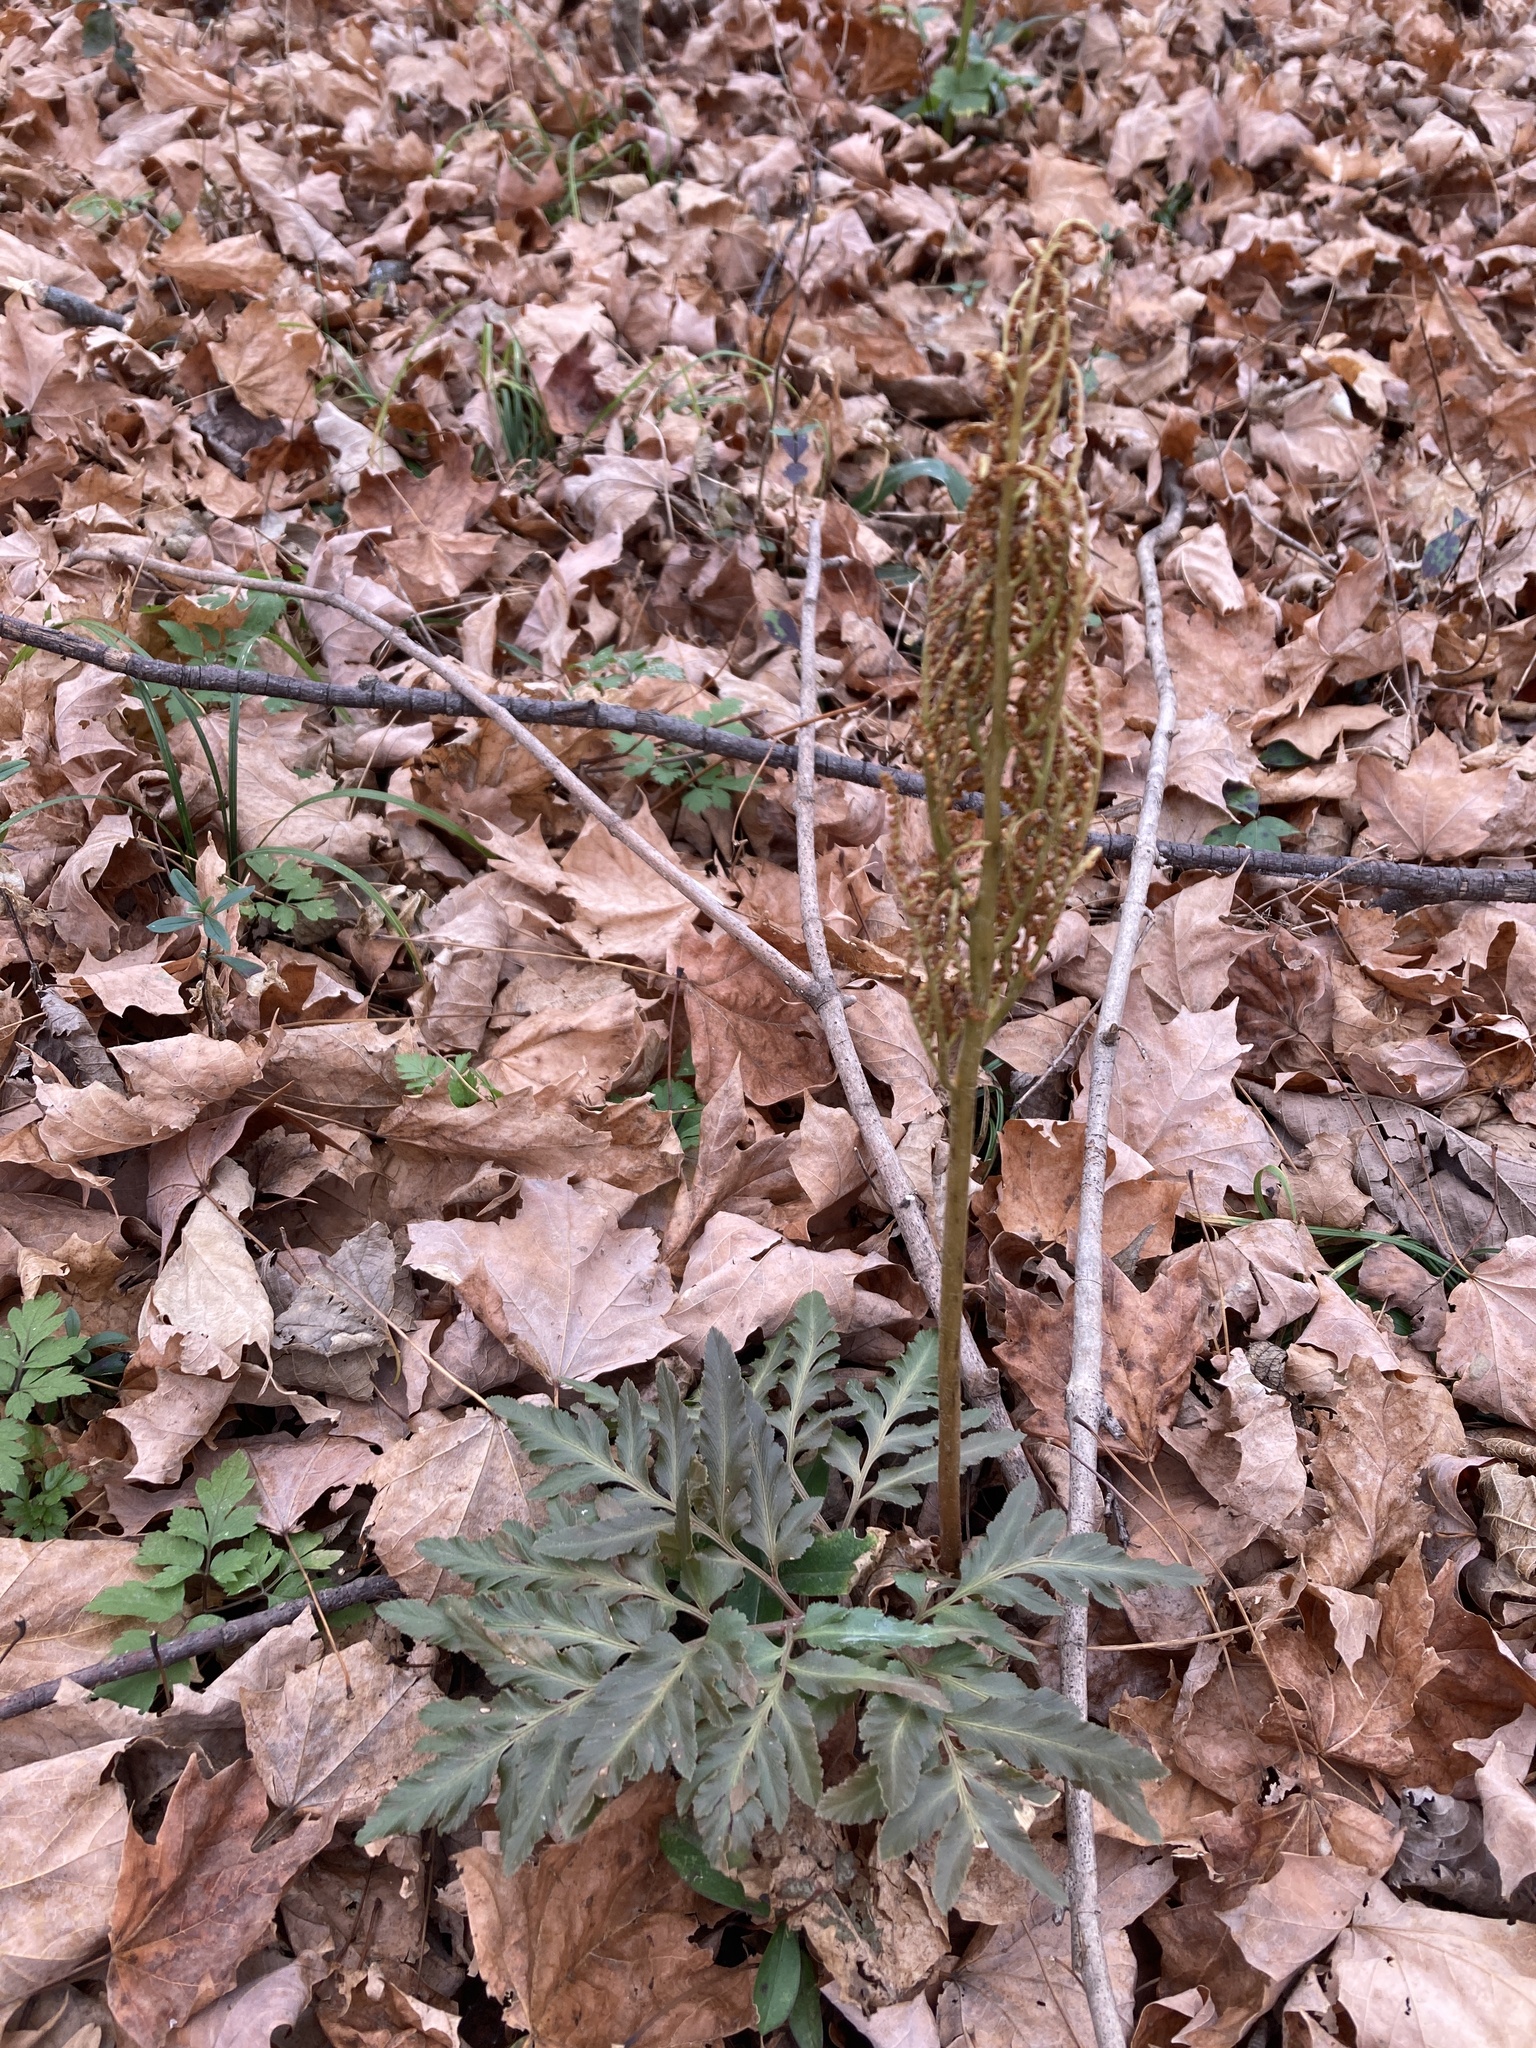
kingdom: Plantae
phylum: Tracheophyta
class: Polypodiopsida
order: Ophioglossales
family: Ophioglossaceae
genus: Sceptridium
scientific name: Sceptridium dissectum
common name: Cut-leaved grapefern
